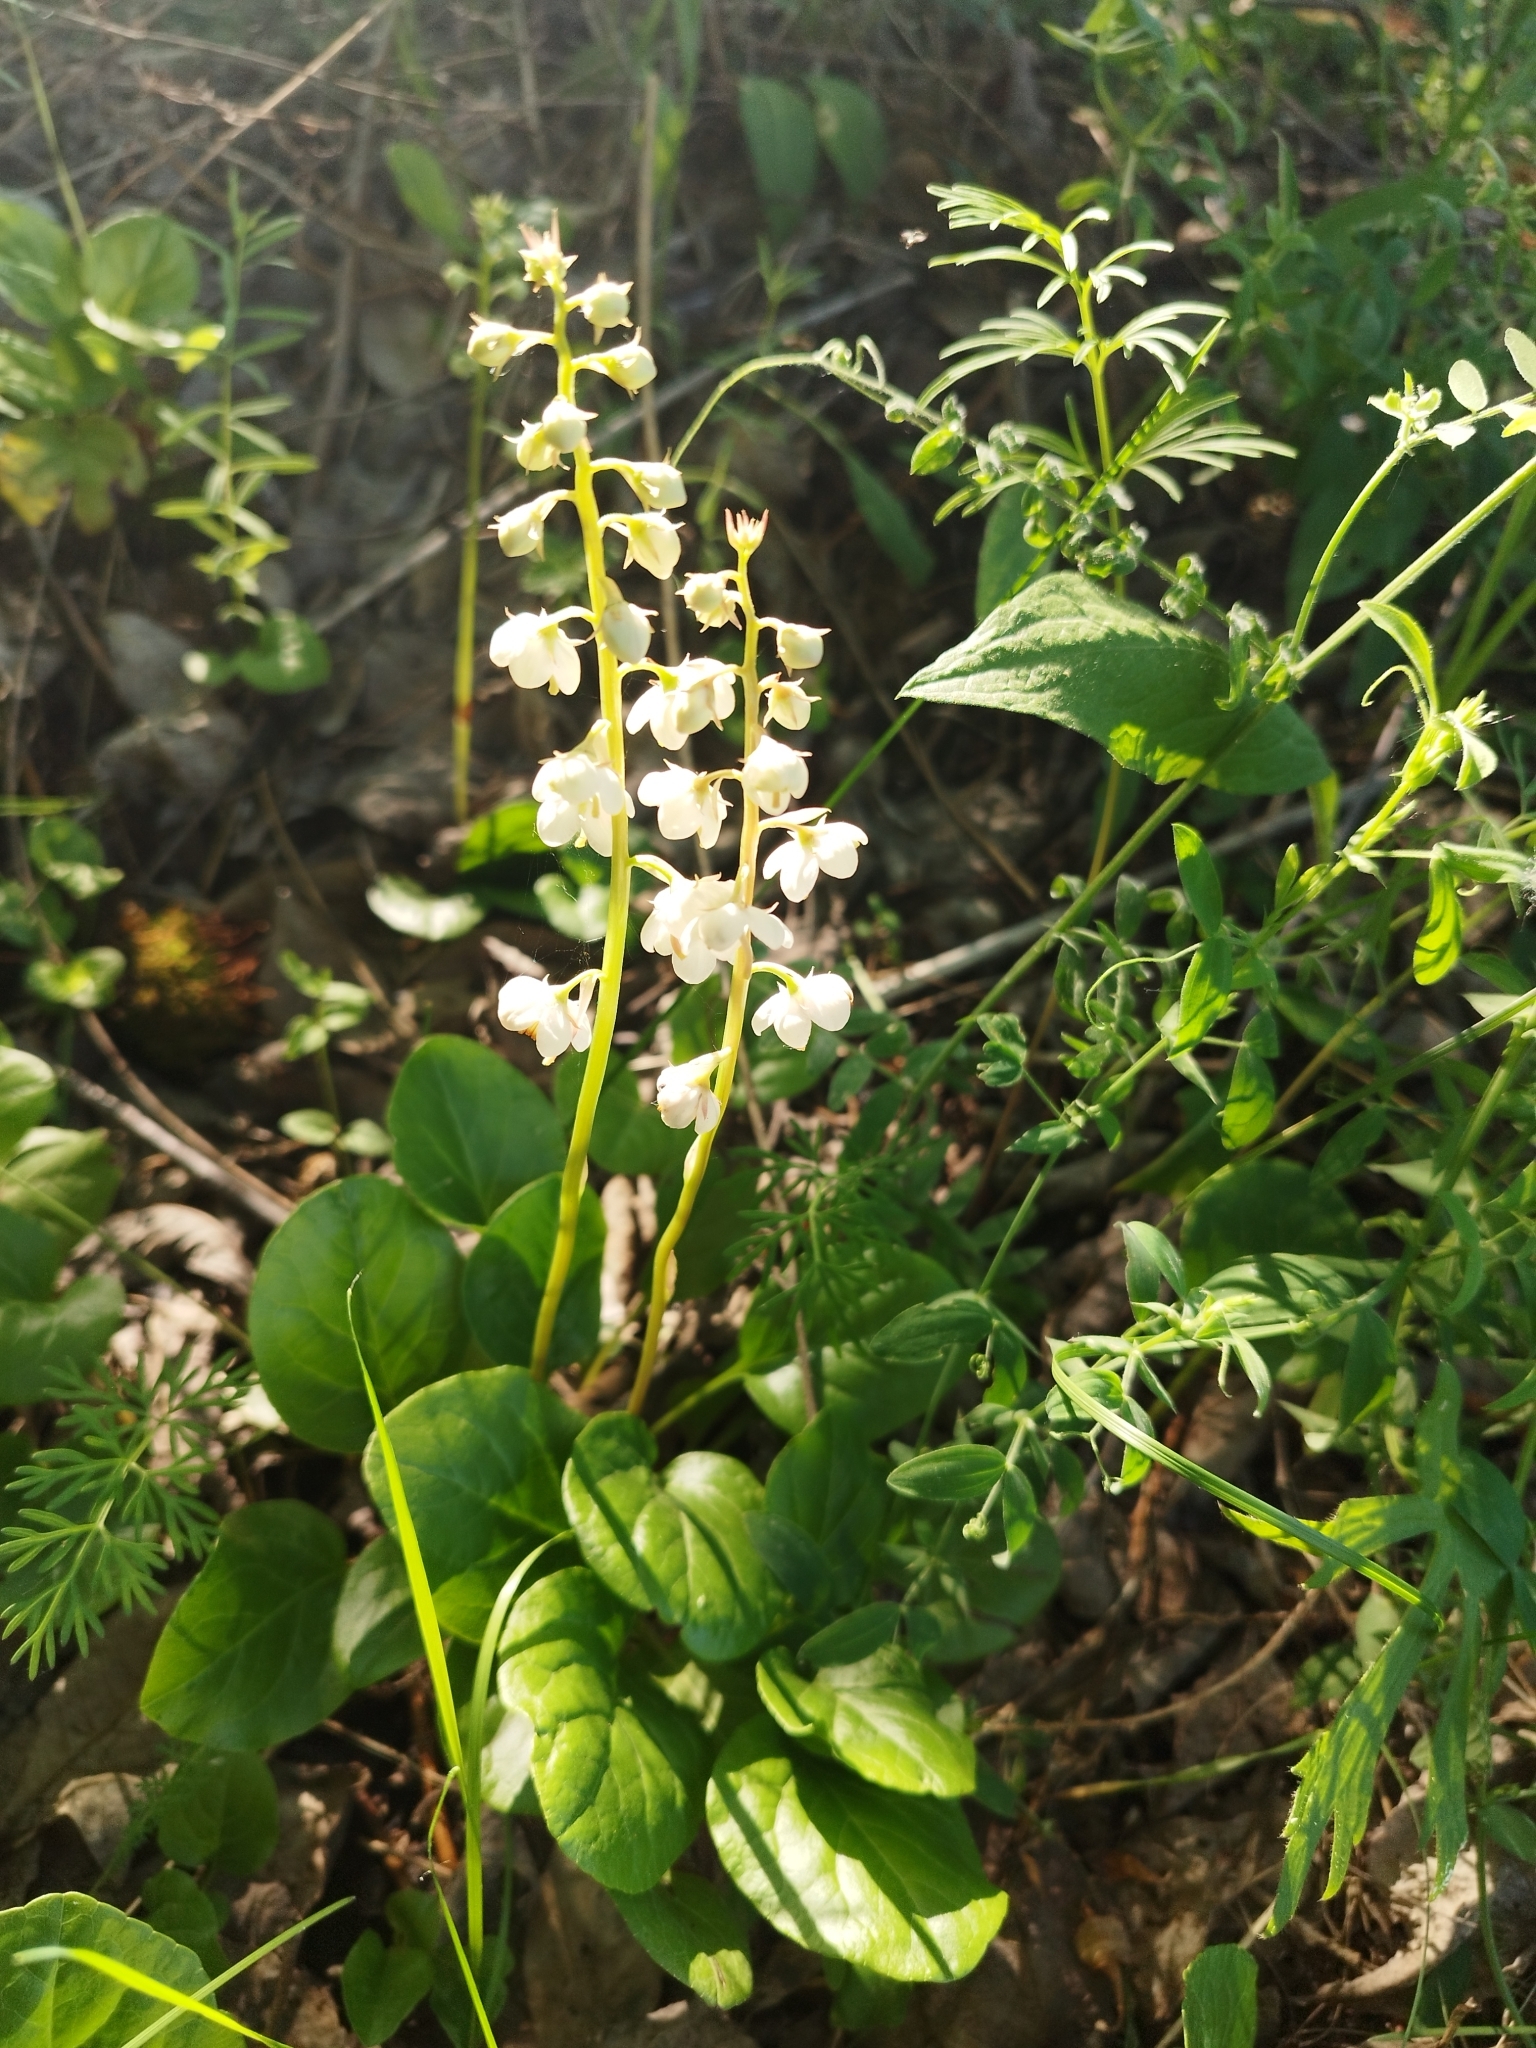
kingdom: Plantae
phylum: Tracheophyta
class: Magnoliopsida
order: Ericales
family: Ericaceae
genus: Pyrola
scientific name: Pyrola rotundifolia
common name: Round-leaved wintergreen
